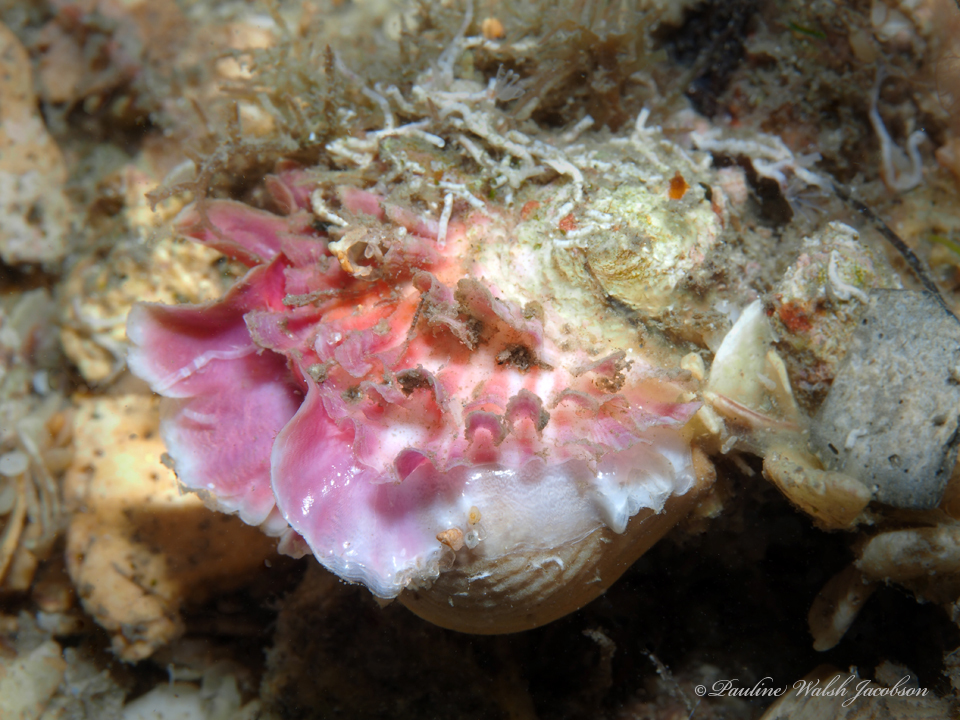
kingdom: Animalia
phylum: Mollusca
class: Bivalvia
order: Venerida
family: Chamidae
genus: Chama
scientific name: Chama macerophylla
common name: Leafy jewelbox
